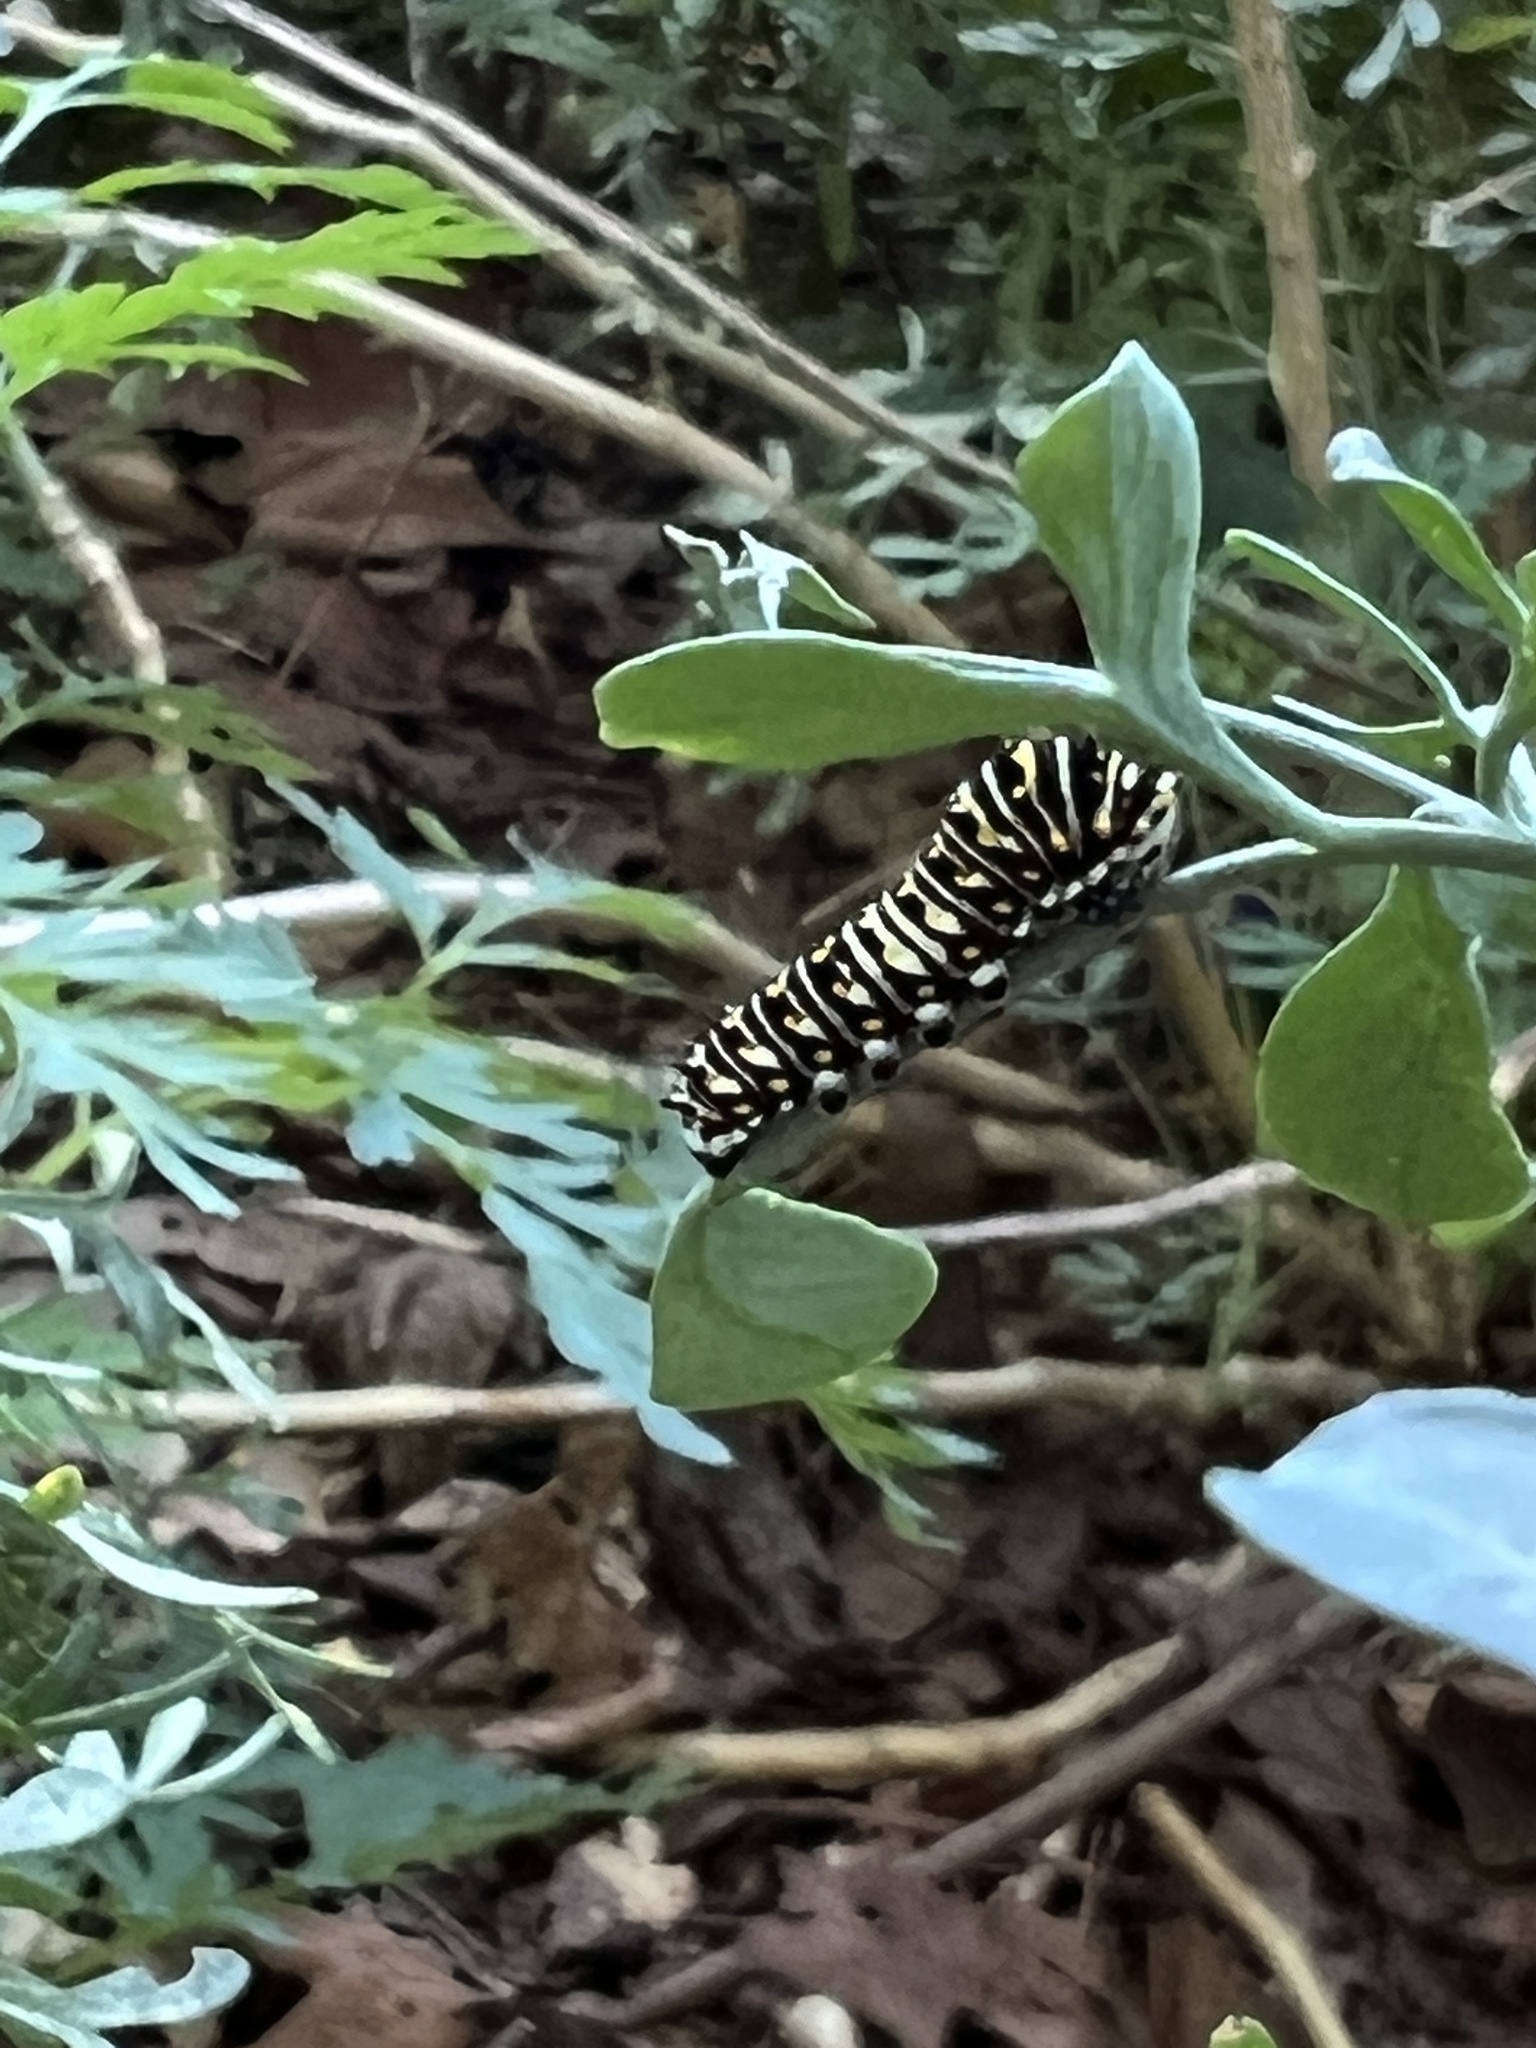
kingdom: Animalia
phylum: Arthropoda
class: Insecta
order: Lepidoptera
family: Papilionidae
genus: Papilio
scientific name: Papilio polyxenes
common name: Black swallowtail
